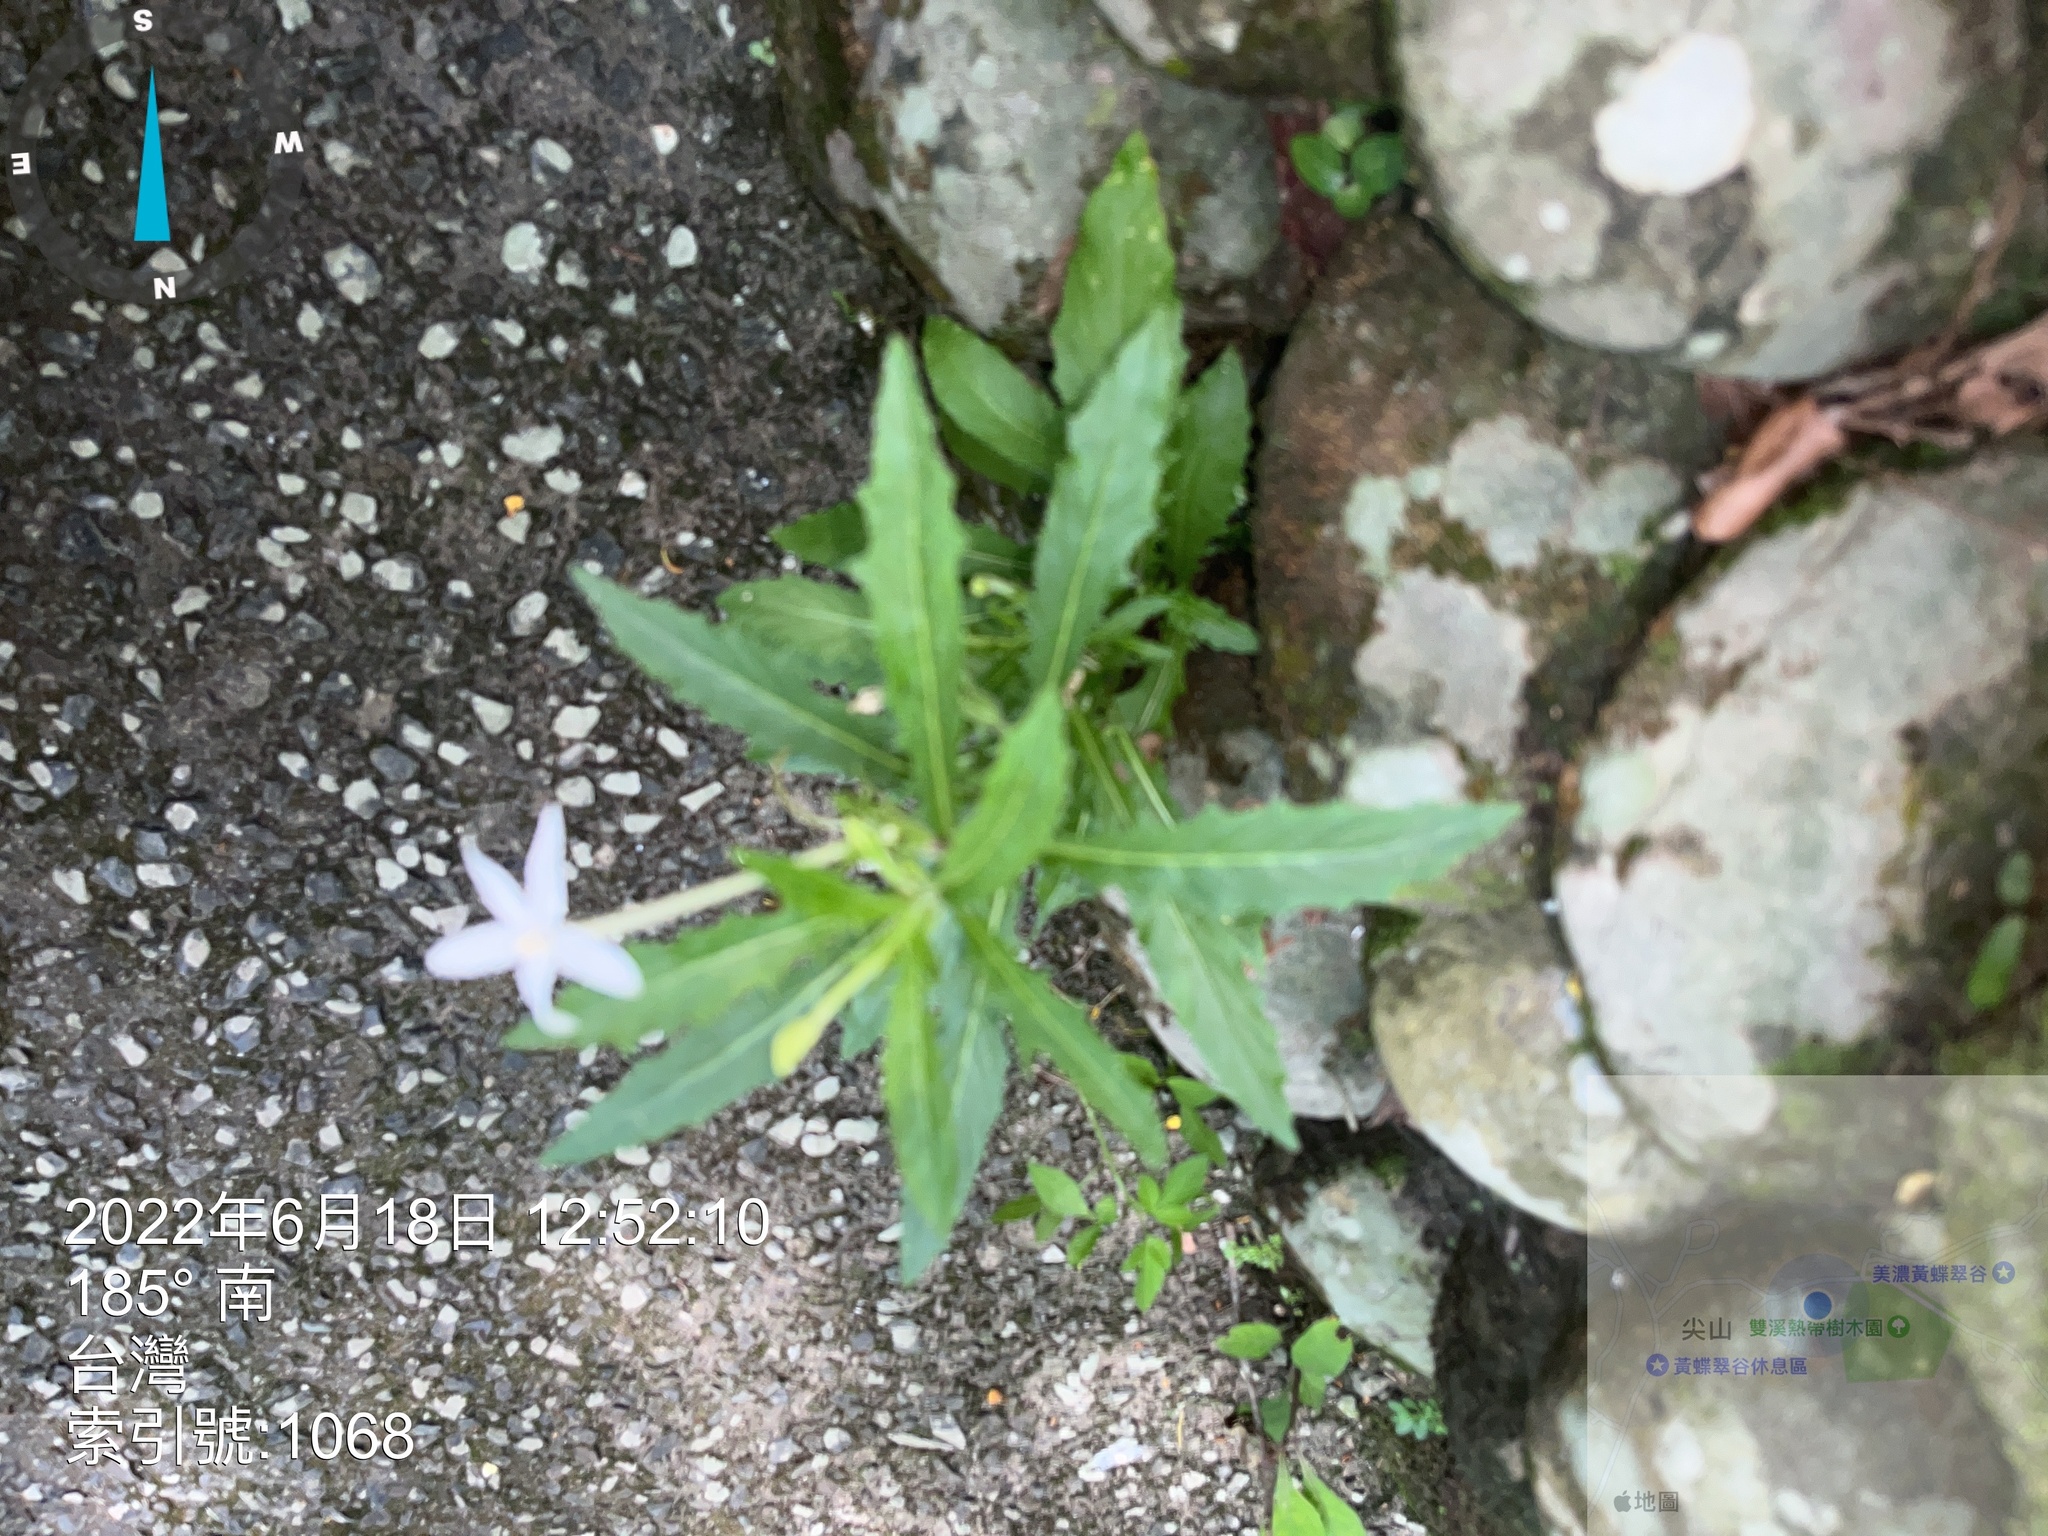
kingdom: Plantae
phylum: Tracheophyta
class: Magnoliopsida
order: Asterales
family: Campanulaceae
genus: Hippobroma
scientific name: Hippobroma longiflora
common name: Madamfate
